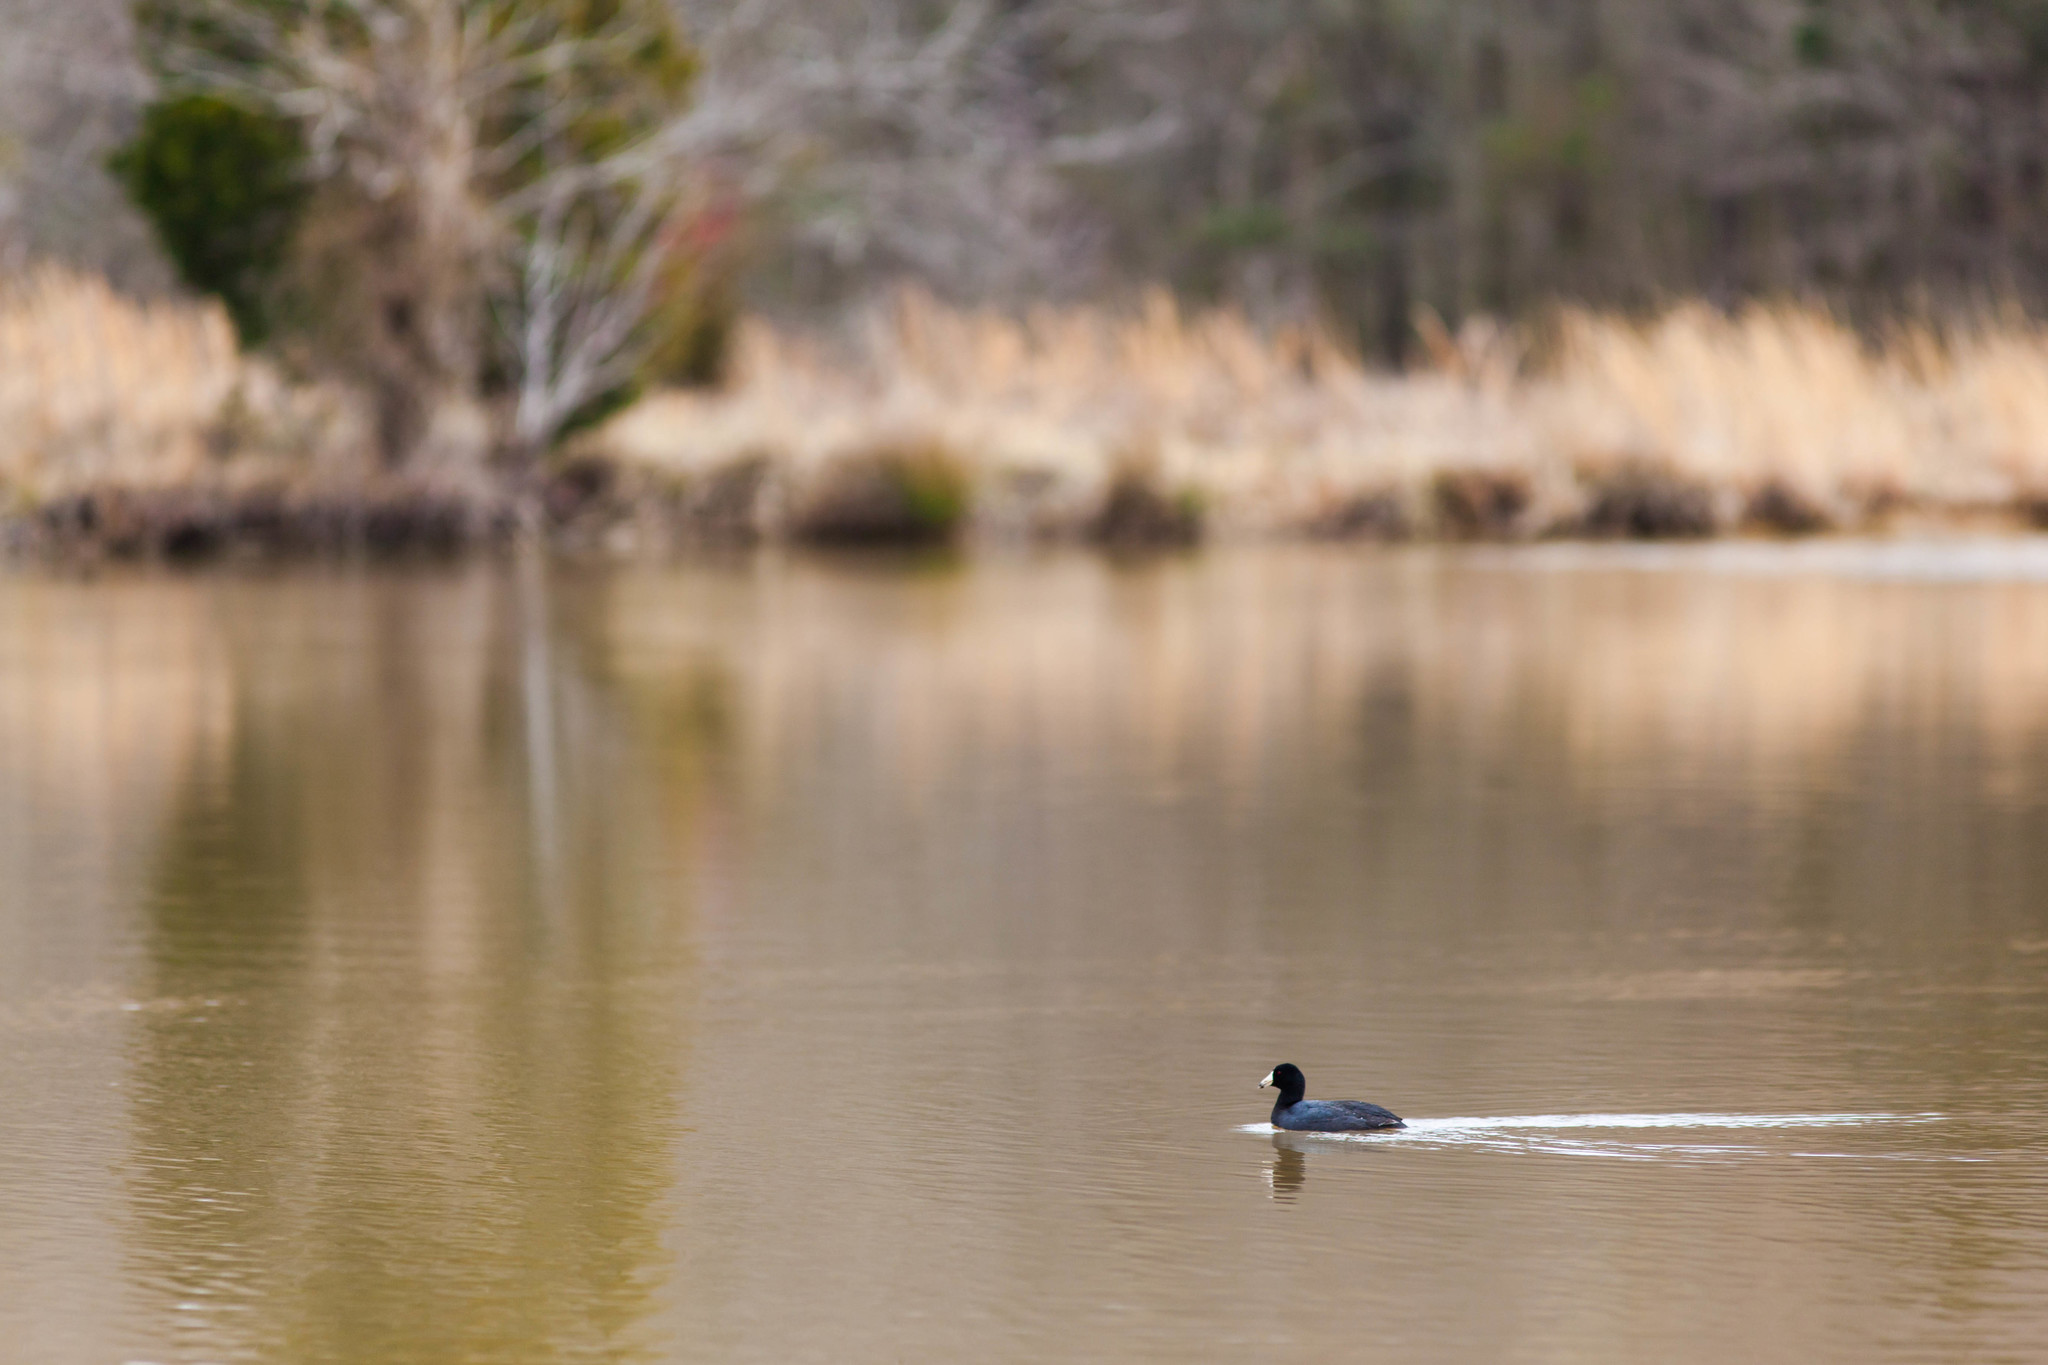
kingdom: Animalia
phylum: Chordata
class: Aves
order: Gruiformes
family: Rallidae
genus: Fulica
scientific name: Fulica americana
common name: American coot
